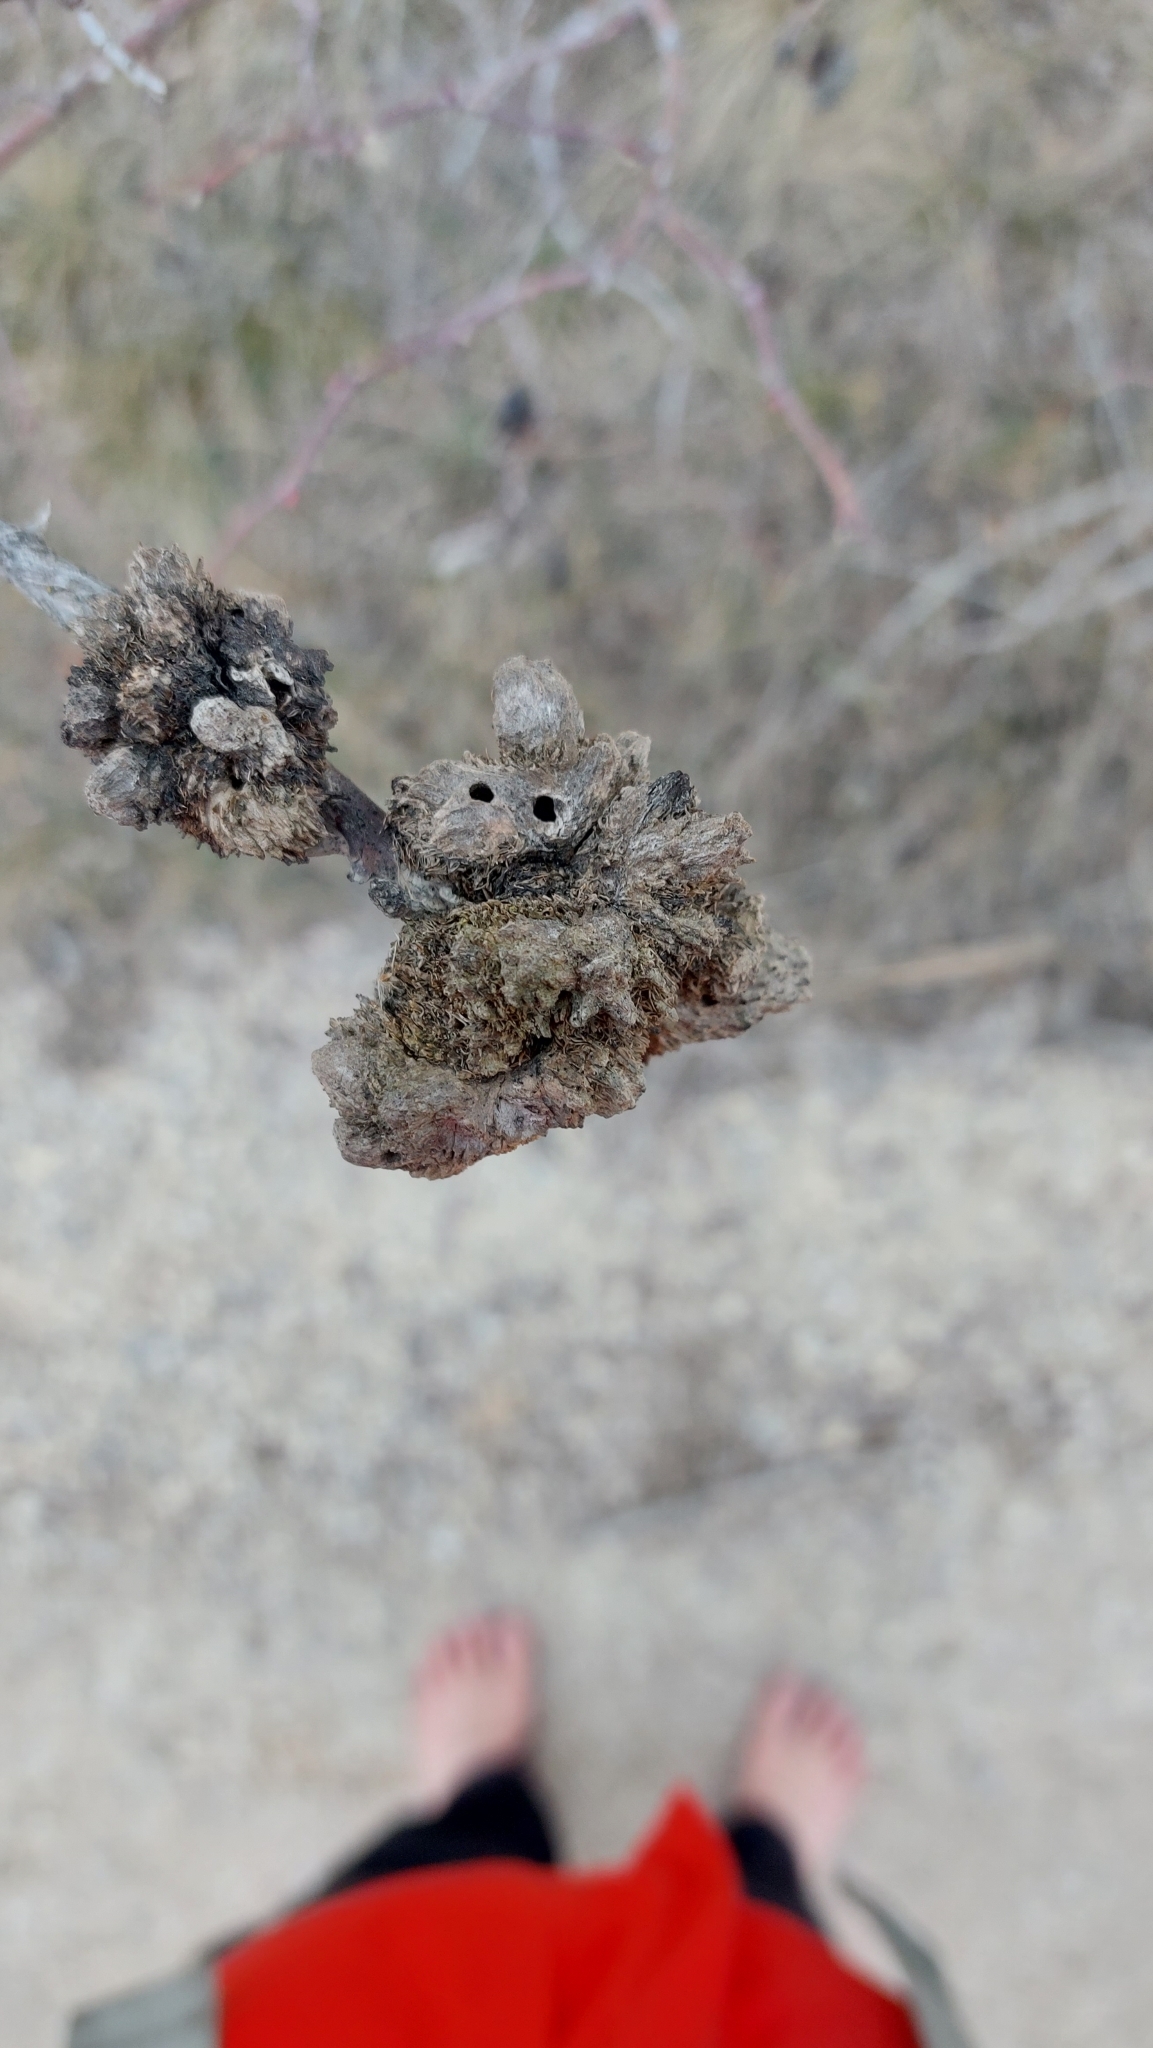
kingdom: Animalia
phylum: Arthropoda
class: Insecta
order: Hymenoptera
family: Cynipidae
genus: Diplolepis
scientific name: Diplolepis rosae
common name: Bedeguar gall
